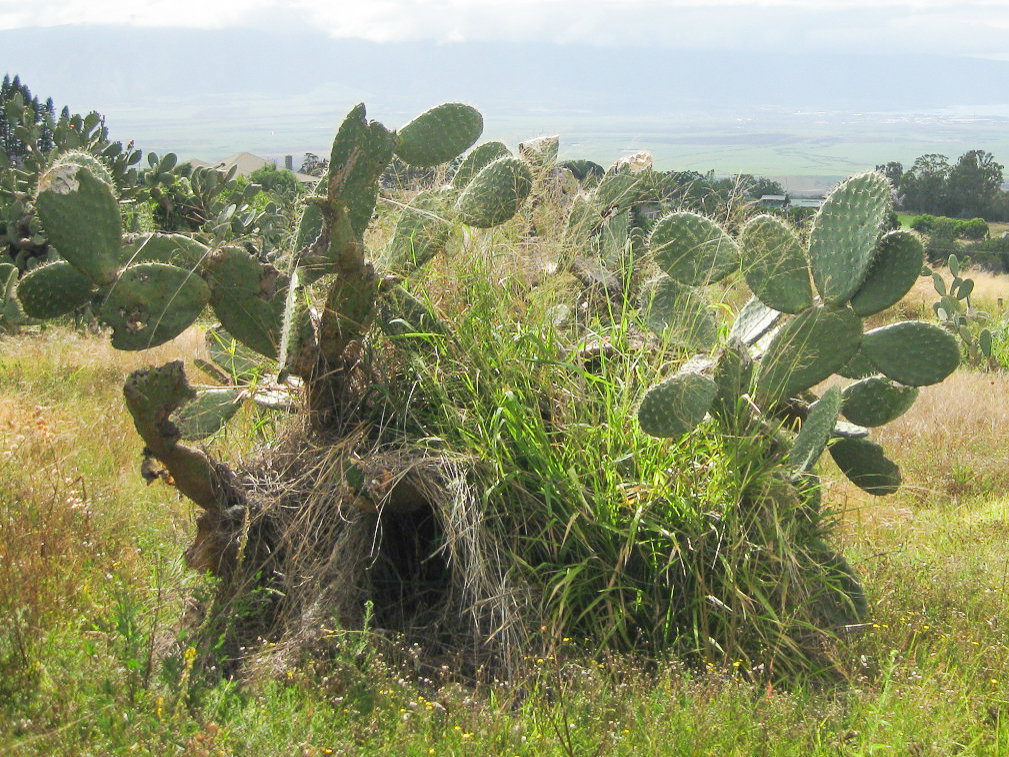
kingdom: Plantae
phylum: Tracheophyta
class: Magnoliopsida
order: Caryophyllales
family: Cactaceae
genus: Opuntia
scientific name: Opuntia ficus-indica
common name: Barbary fig
